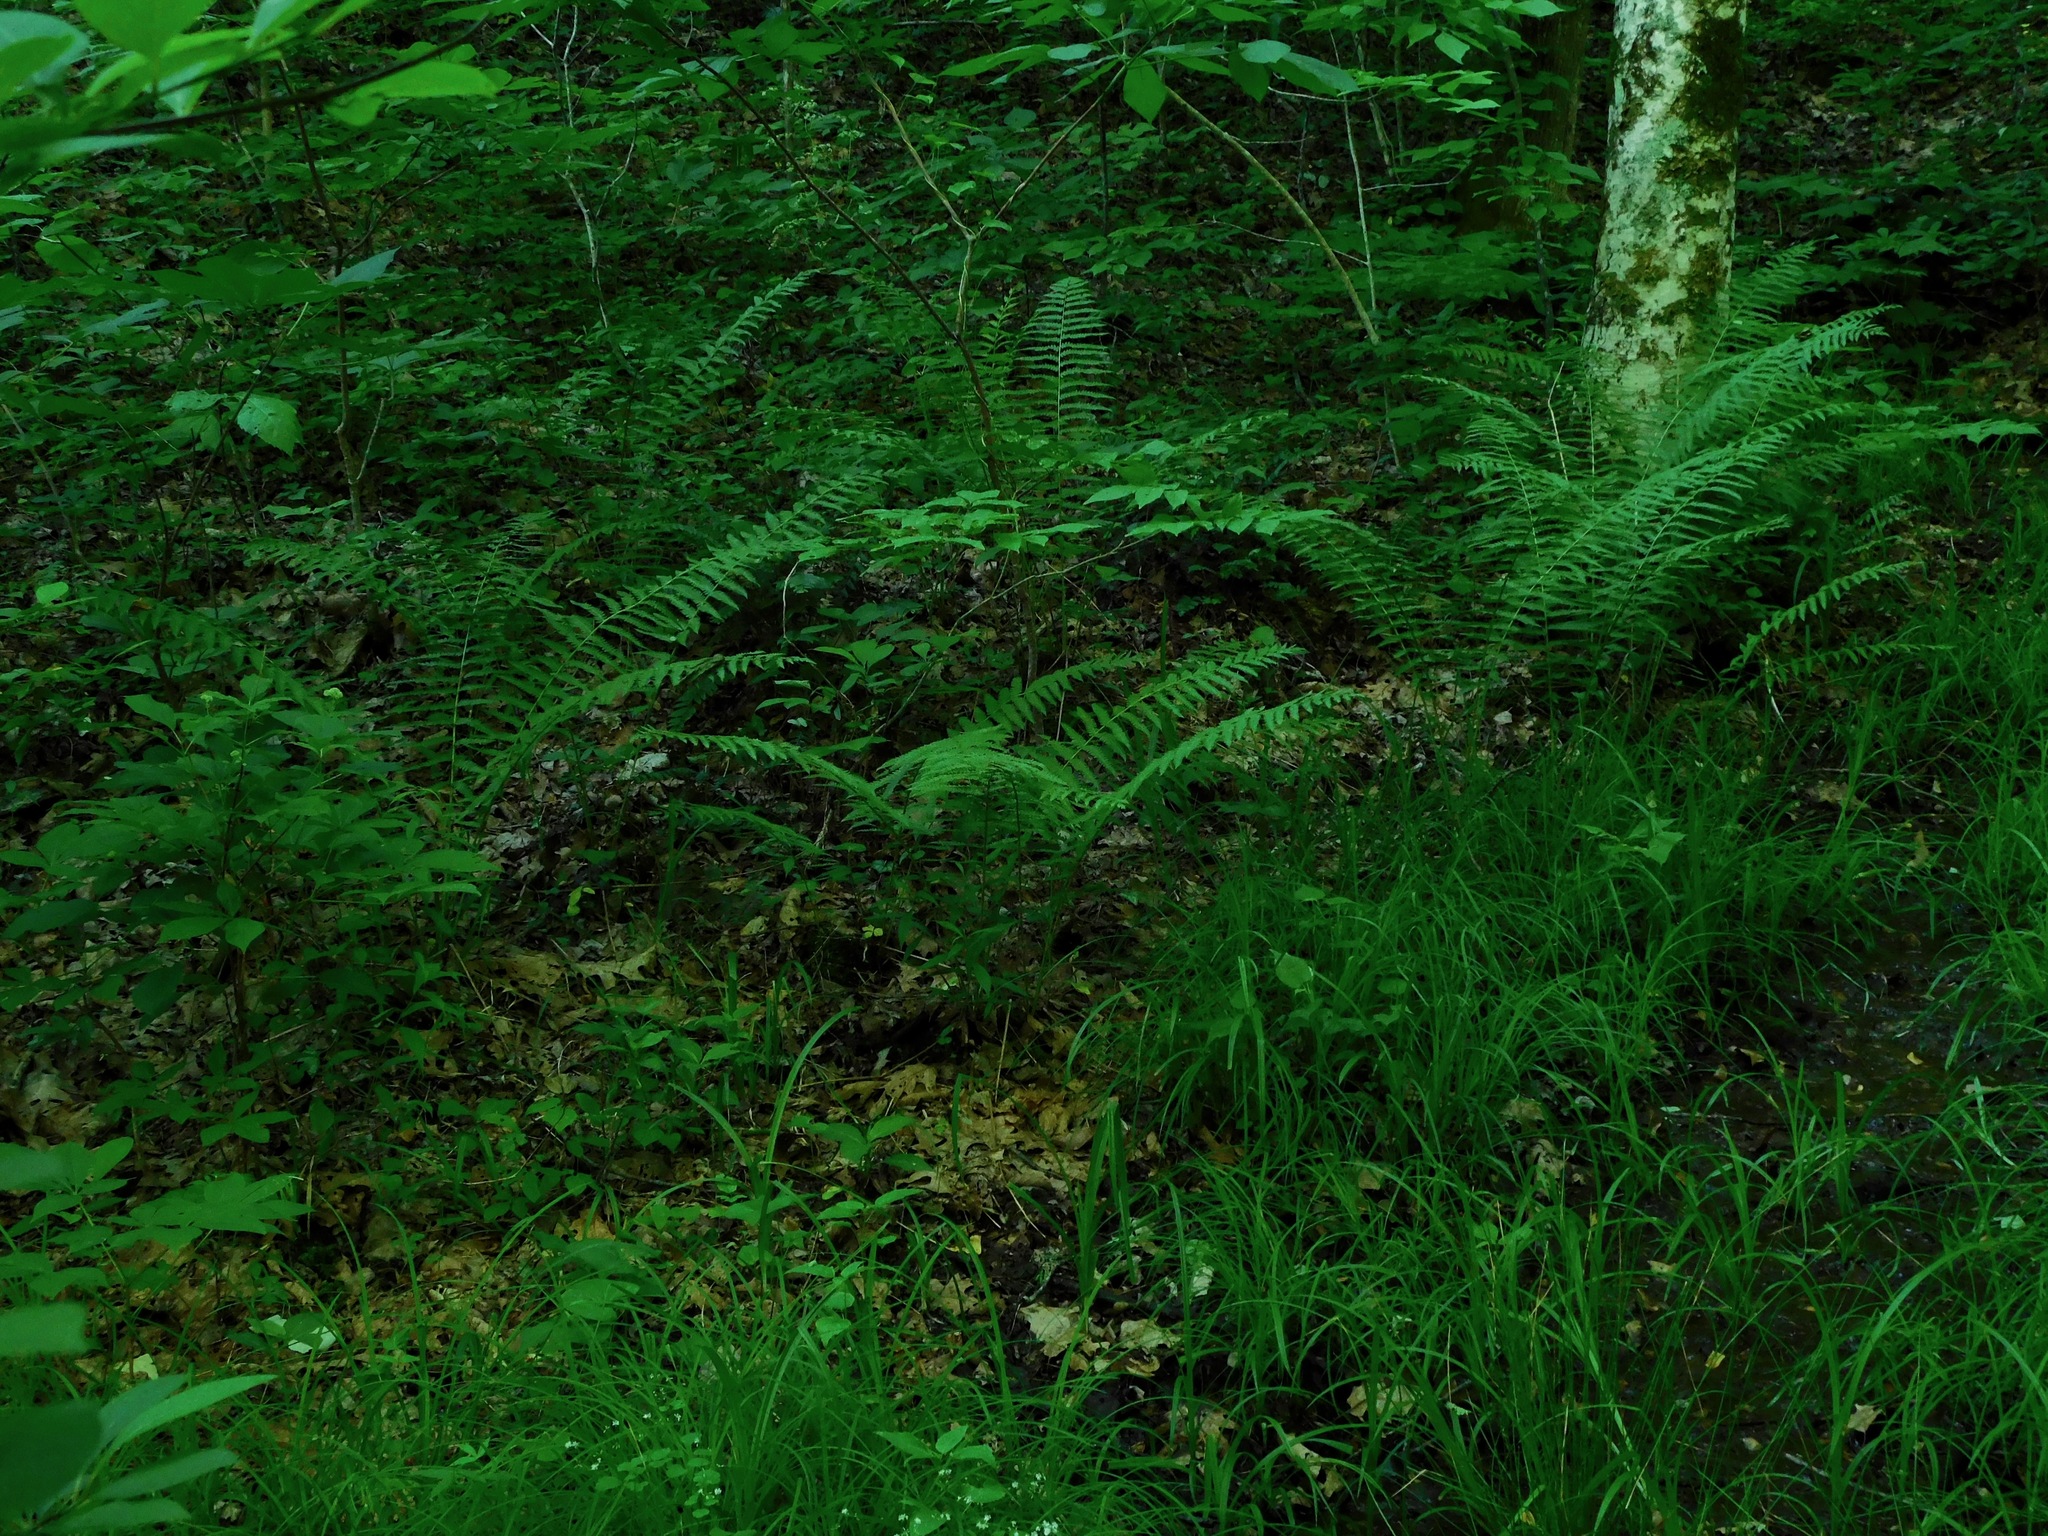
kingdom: Plantae
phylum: Tracheophyta
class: Polypodiopsida
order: Osmundales
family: Osmundaceae
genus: Osmundastrum
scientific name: Osmundastrum cinnamomeum
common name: Cinnamon fern
